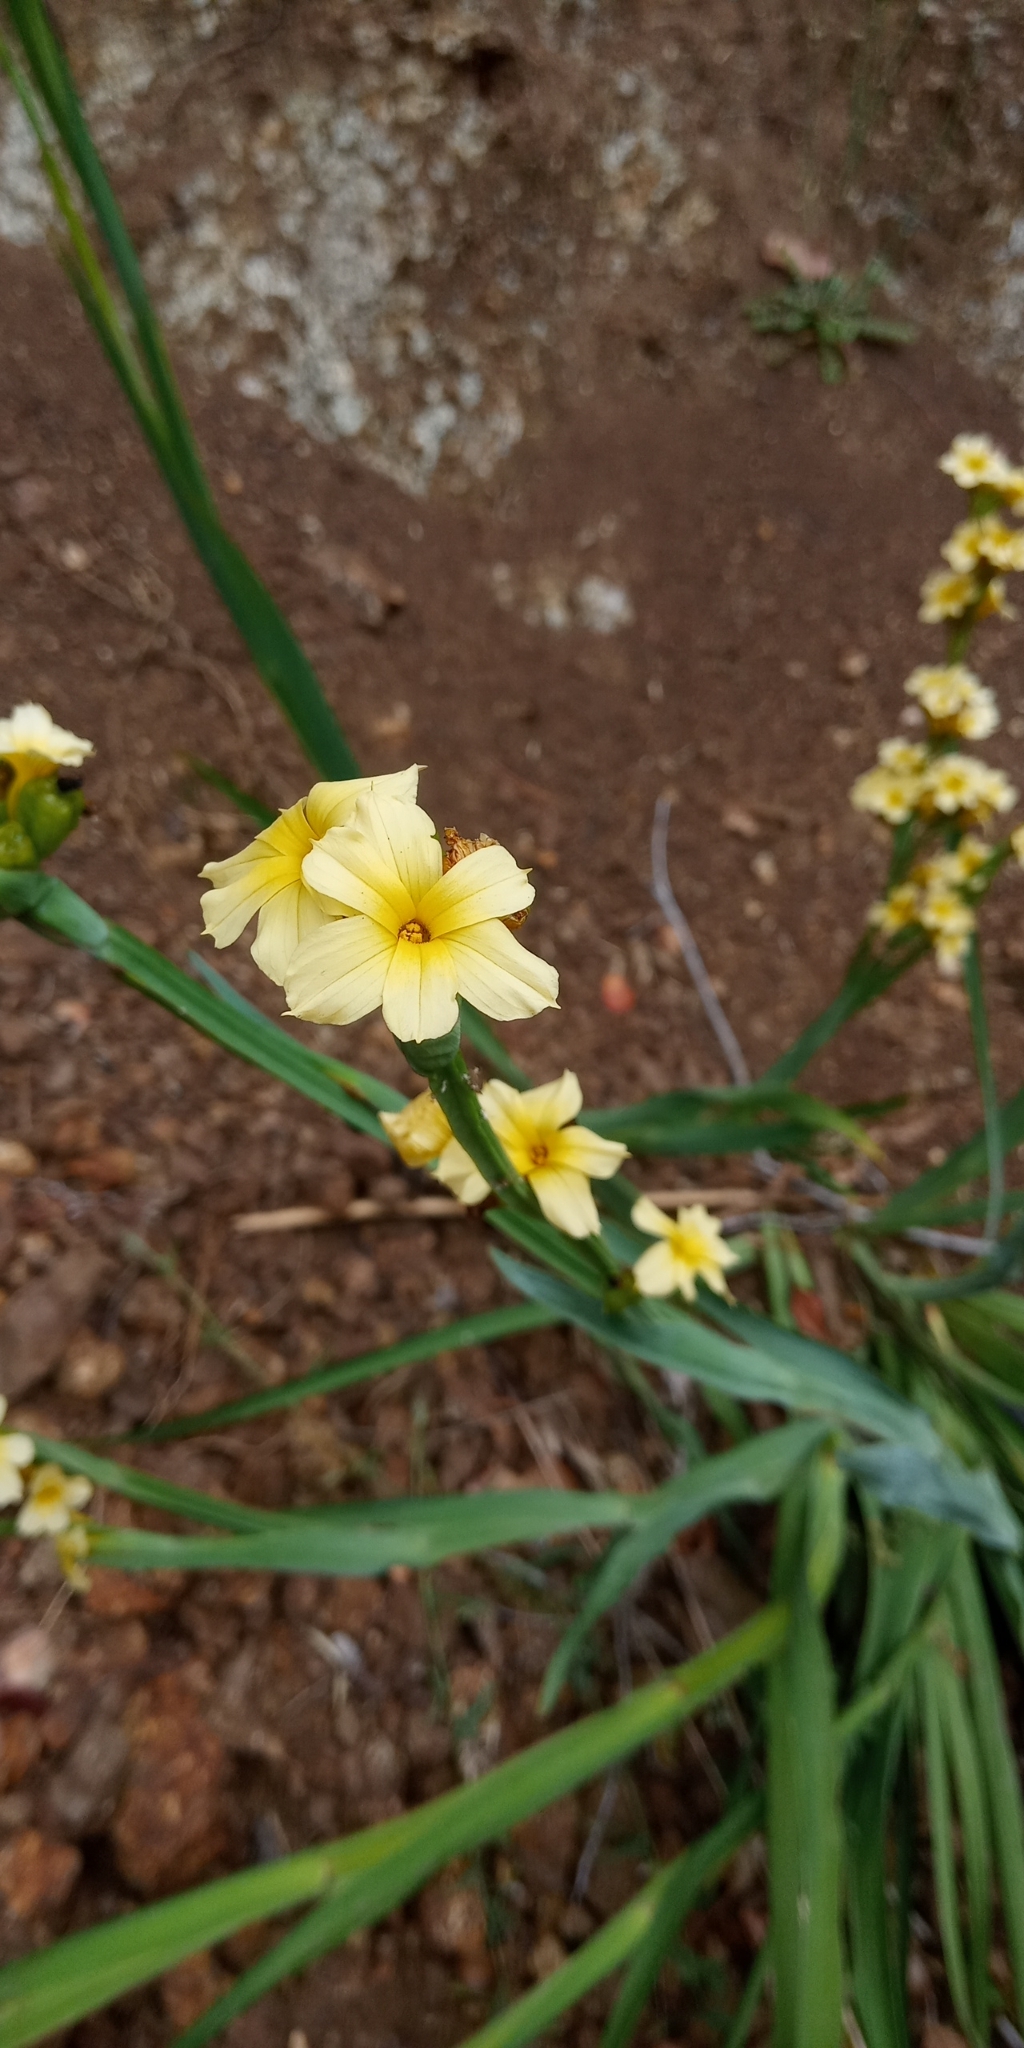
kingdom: Plantae
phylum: Tracheophyta
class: Liliopsida
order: Asparagales
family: Iridaceae
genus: Sisyrinchium
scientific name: Sisyrinchium striatum
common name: Pale yellow-eyed-grass
